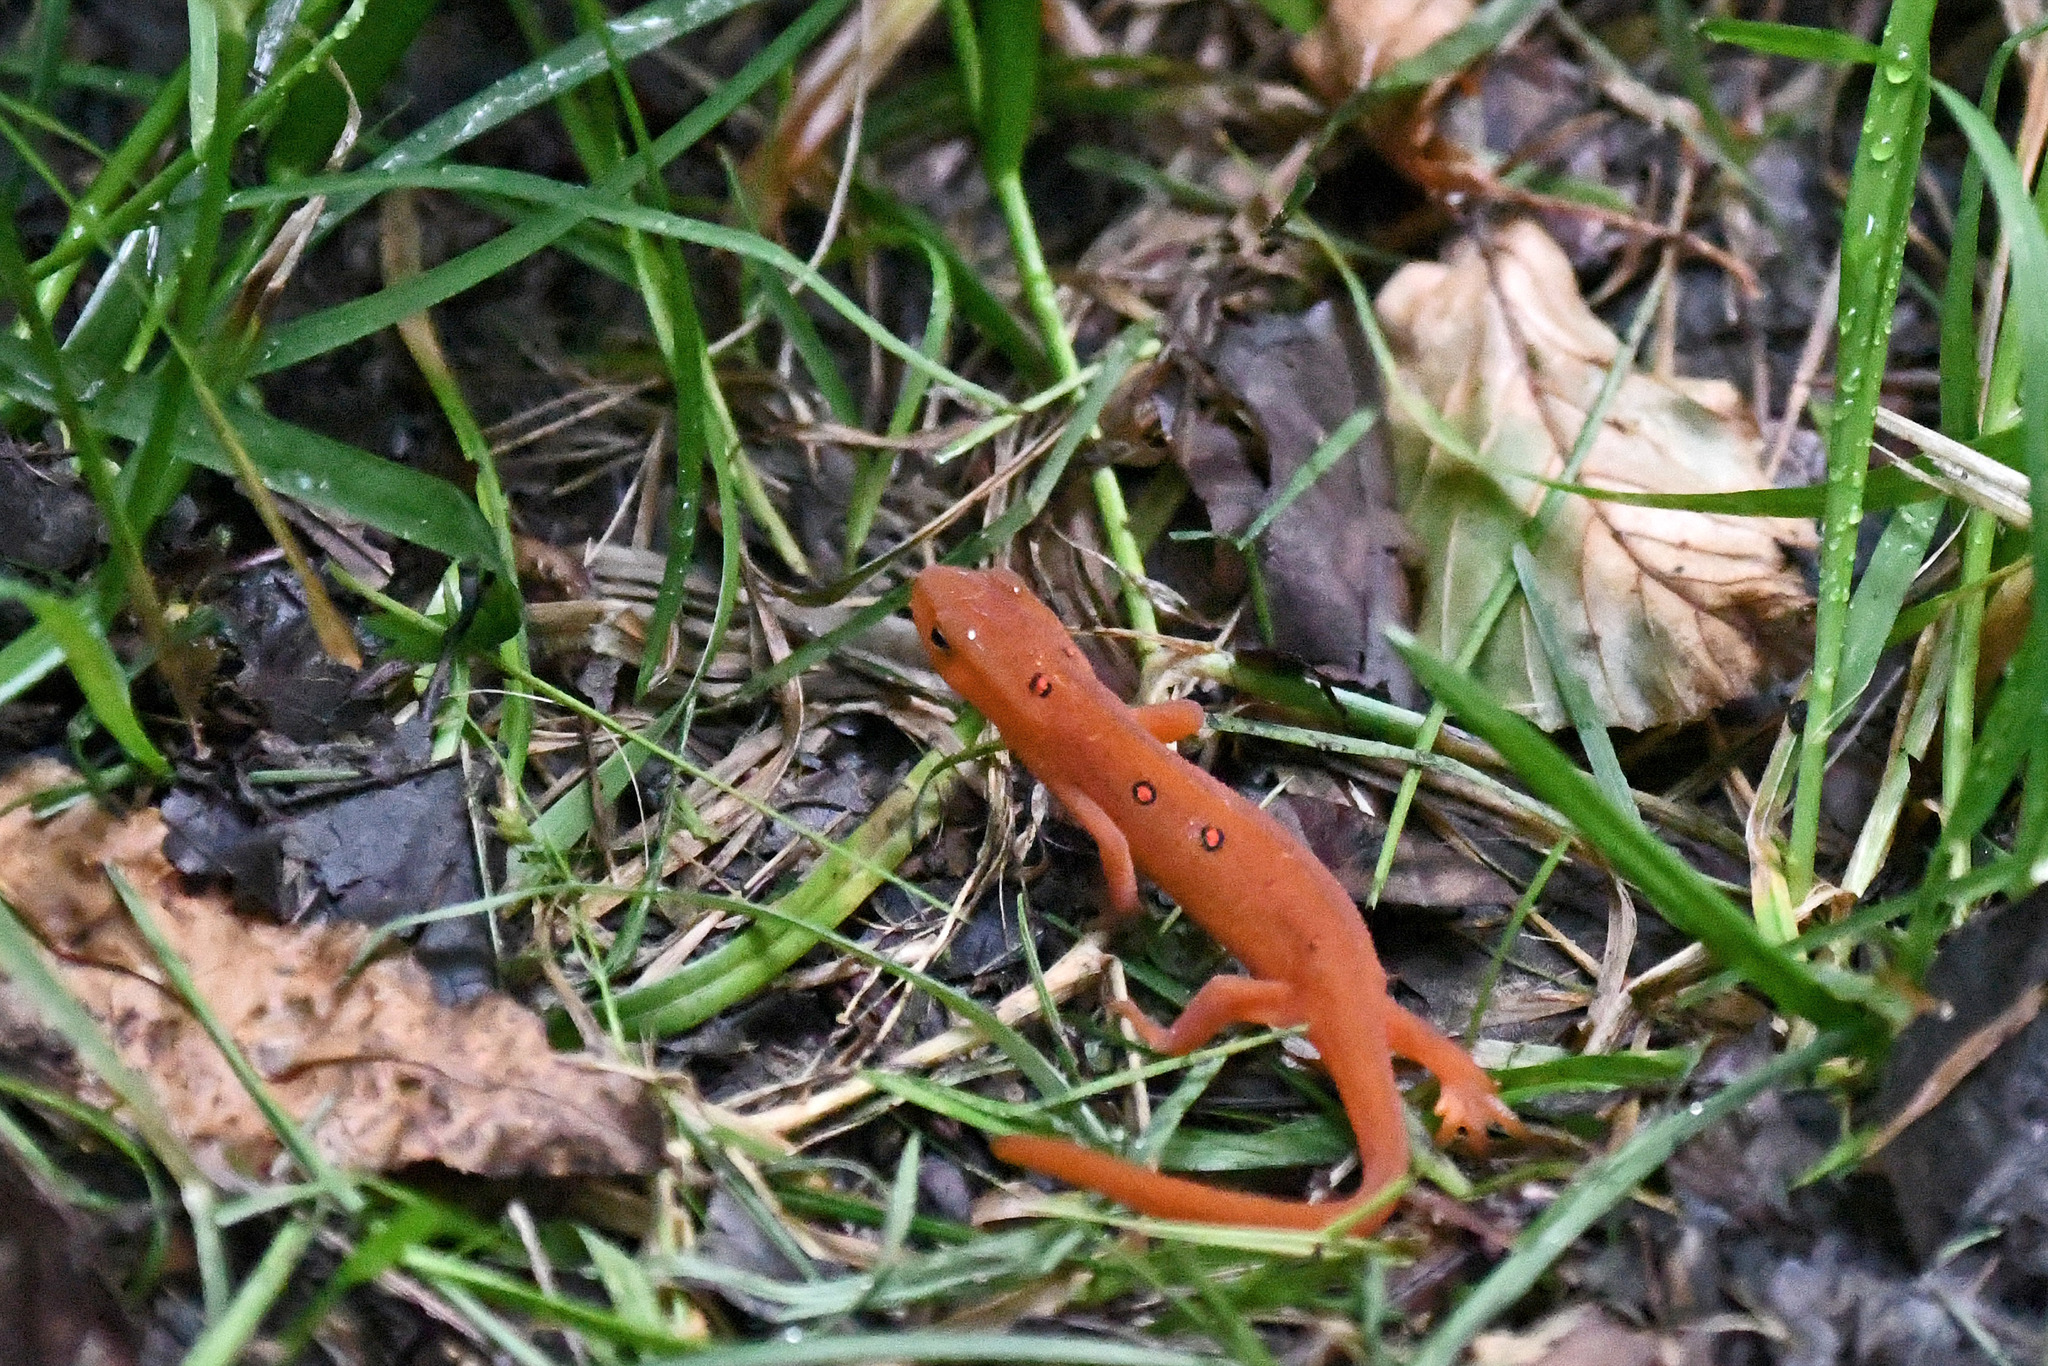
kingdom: Animalia
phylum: Chordata
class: Amphibia
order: Caudata
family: Salamandridae
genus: Notophthalmus
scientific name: Notophthalmus viridescens
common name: Eastern newt
